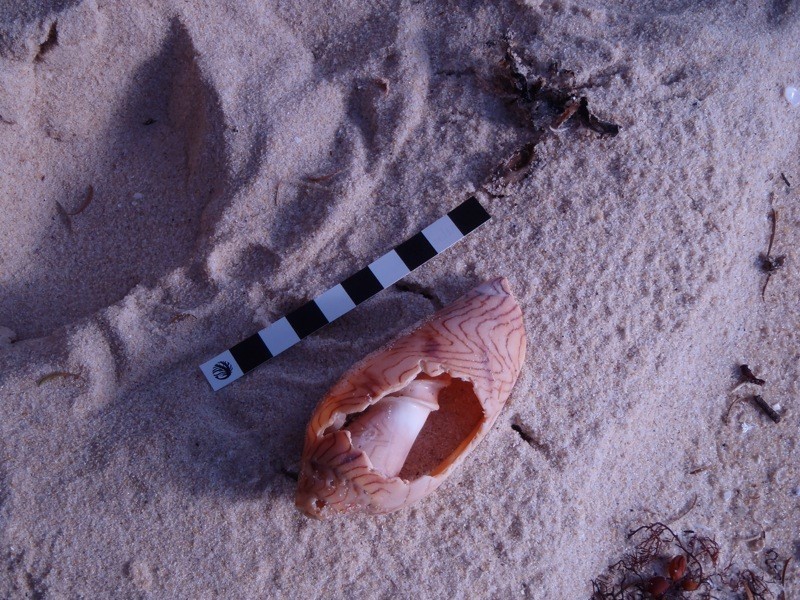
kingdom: Animalia
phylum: Mollusca
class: Gastropoda
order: Neogastropoda
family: Volutidae
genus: Amoria
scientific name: Amoria undulata
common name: Waved volute
